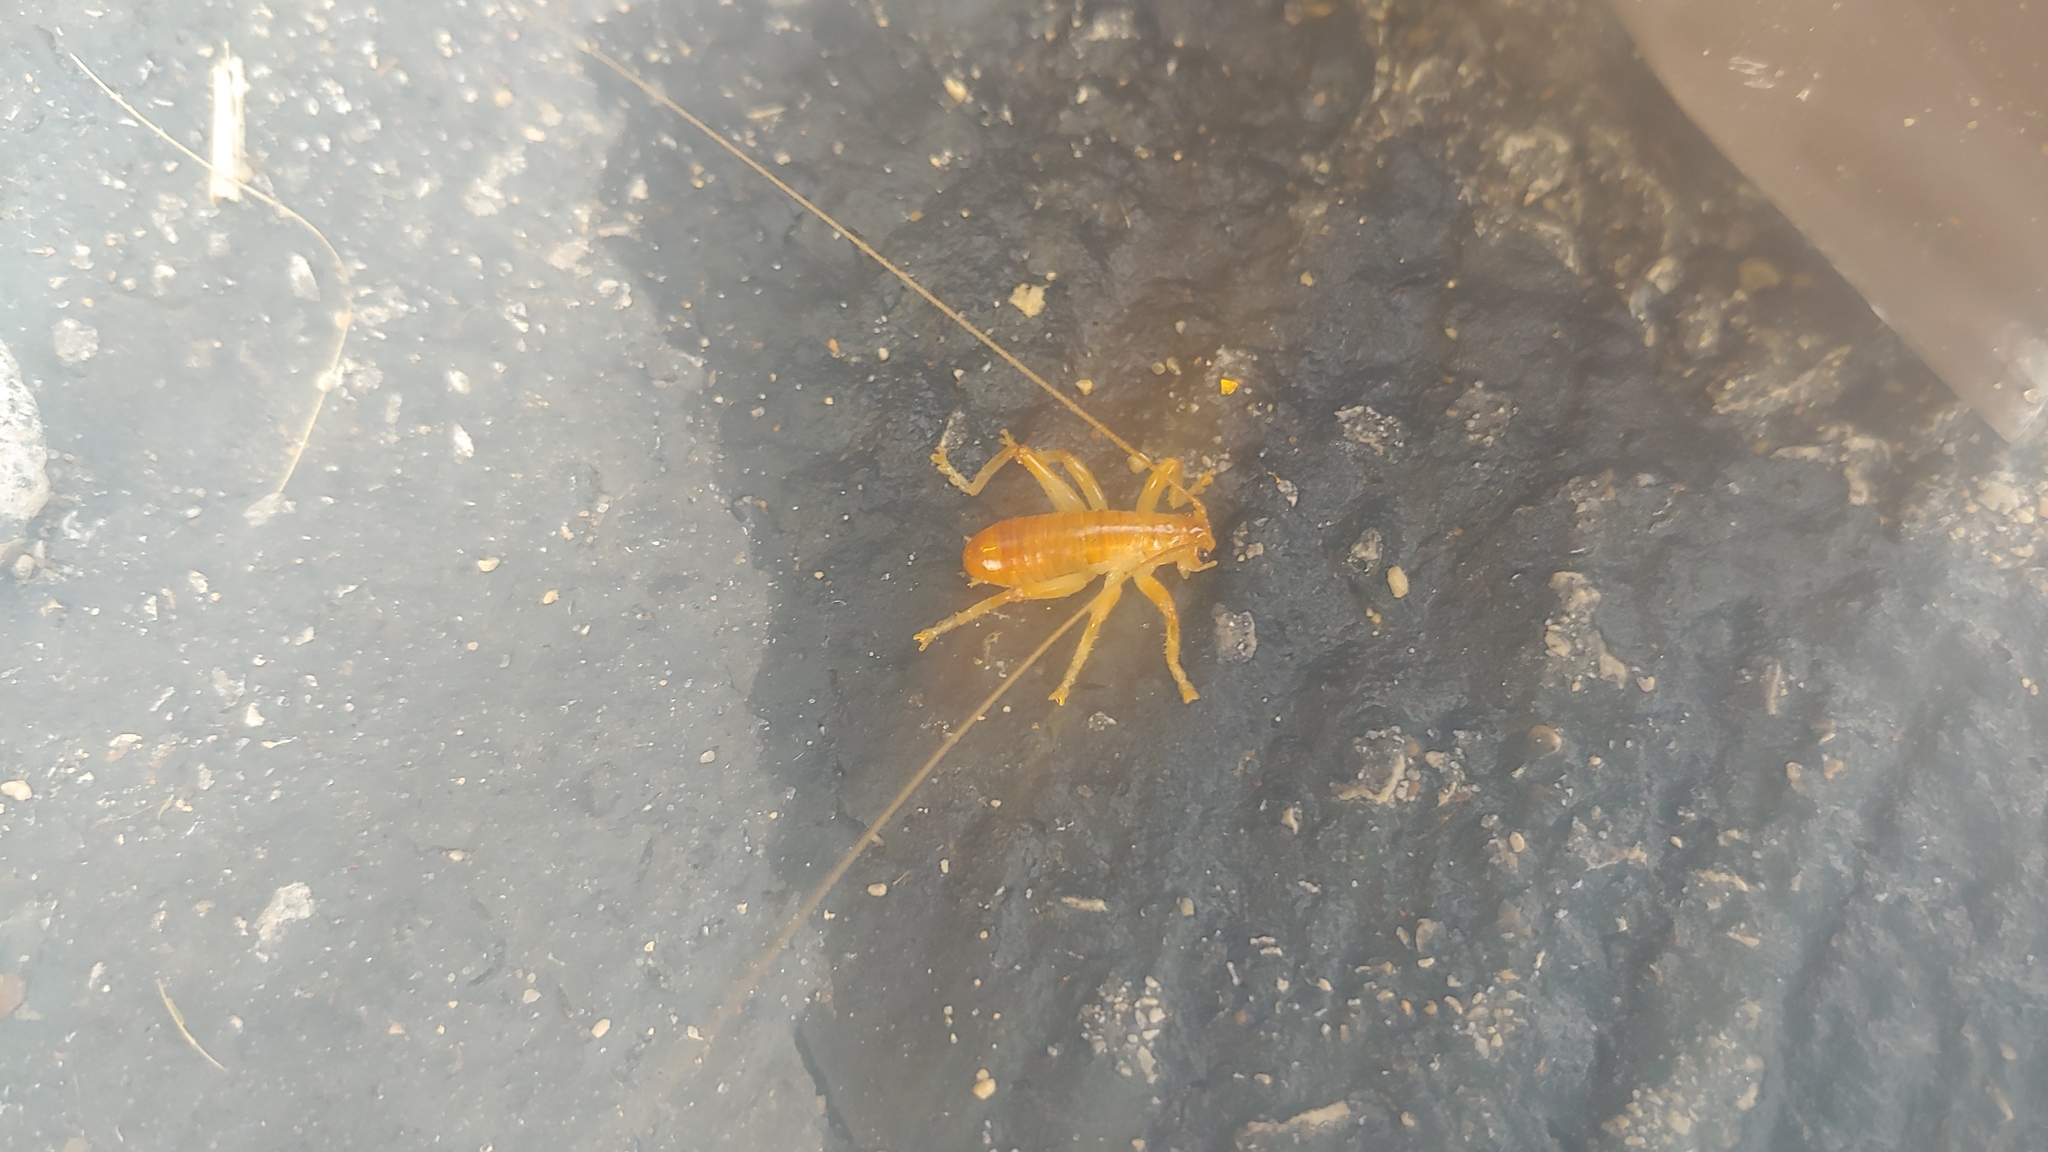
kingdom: Animalia
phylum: Arthropoda
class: Insecta
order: Orthoptera
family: Gryllacrididae
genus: Camptonotus
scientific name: Camptonotus carolinensis
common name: Carolina leaf-roller
